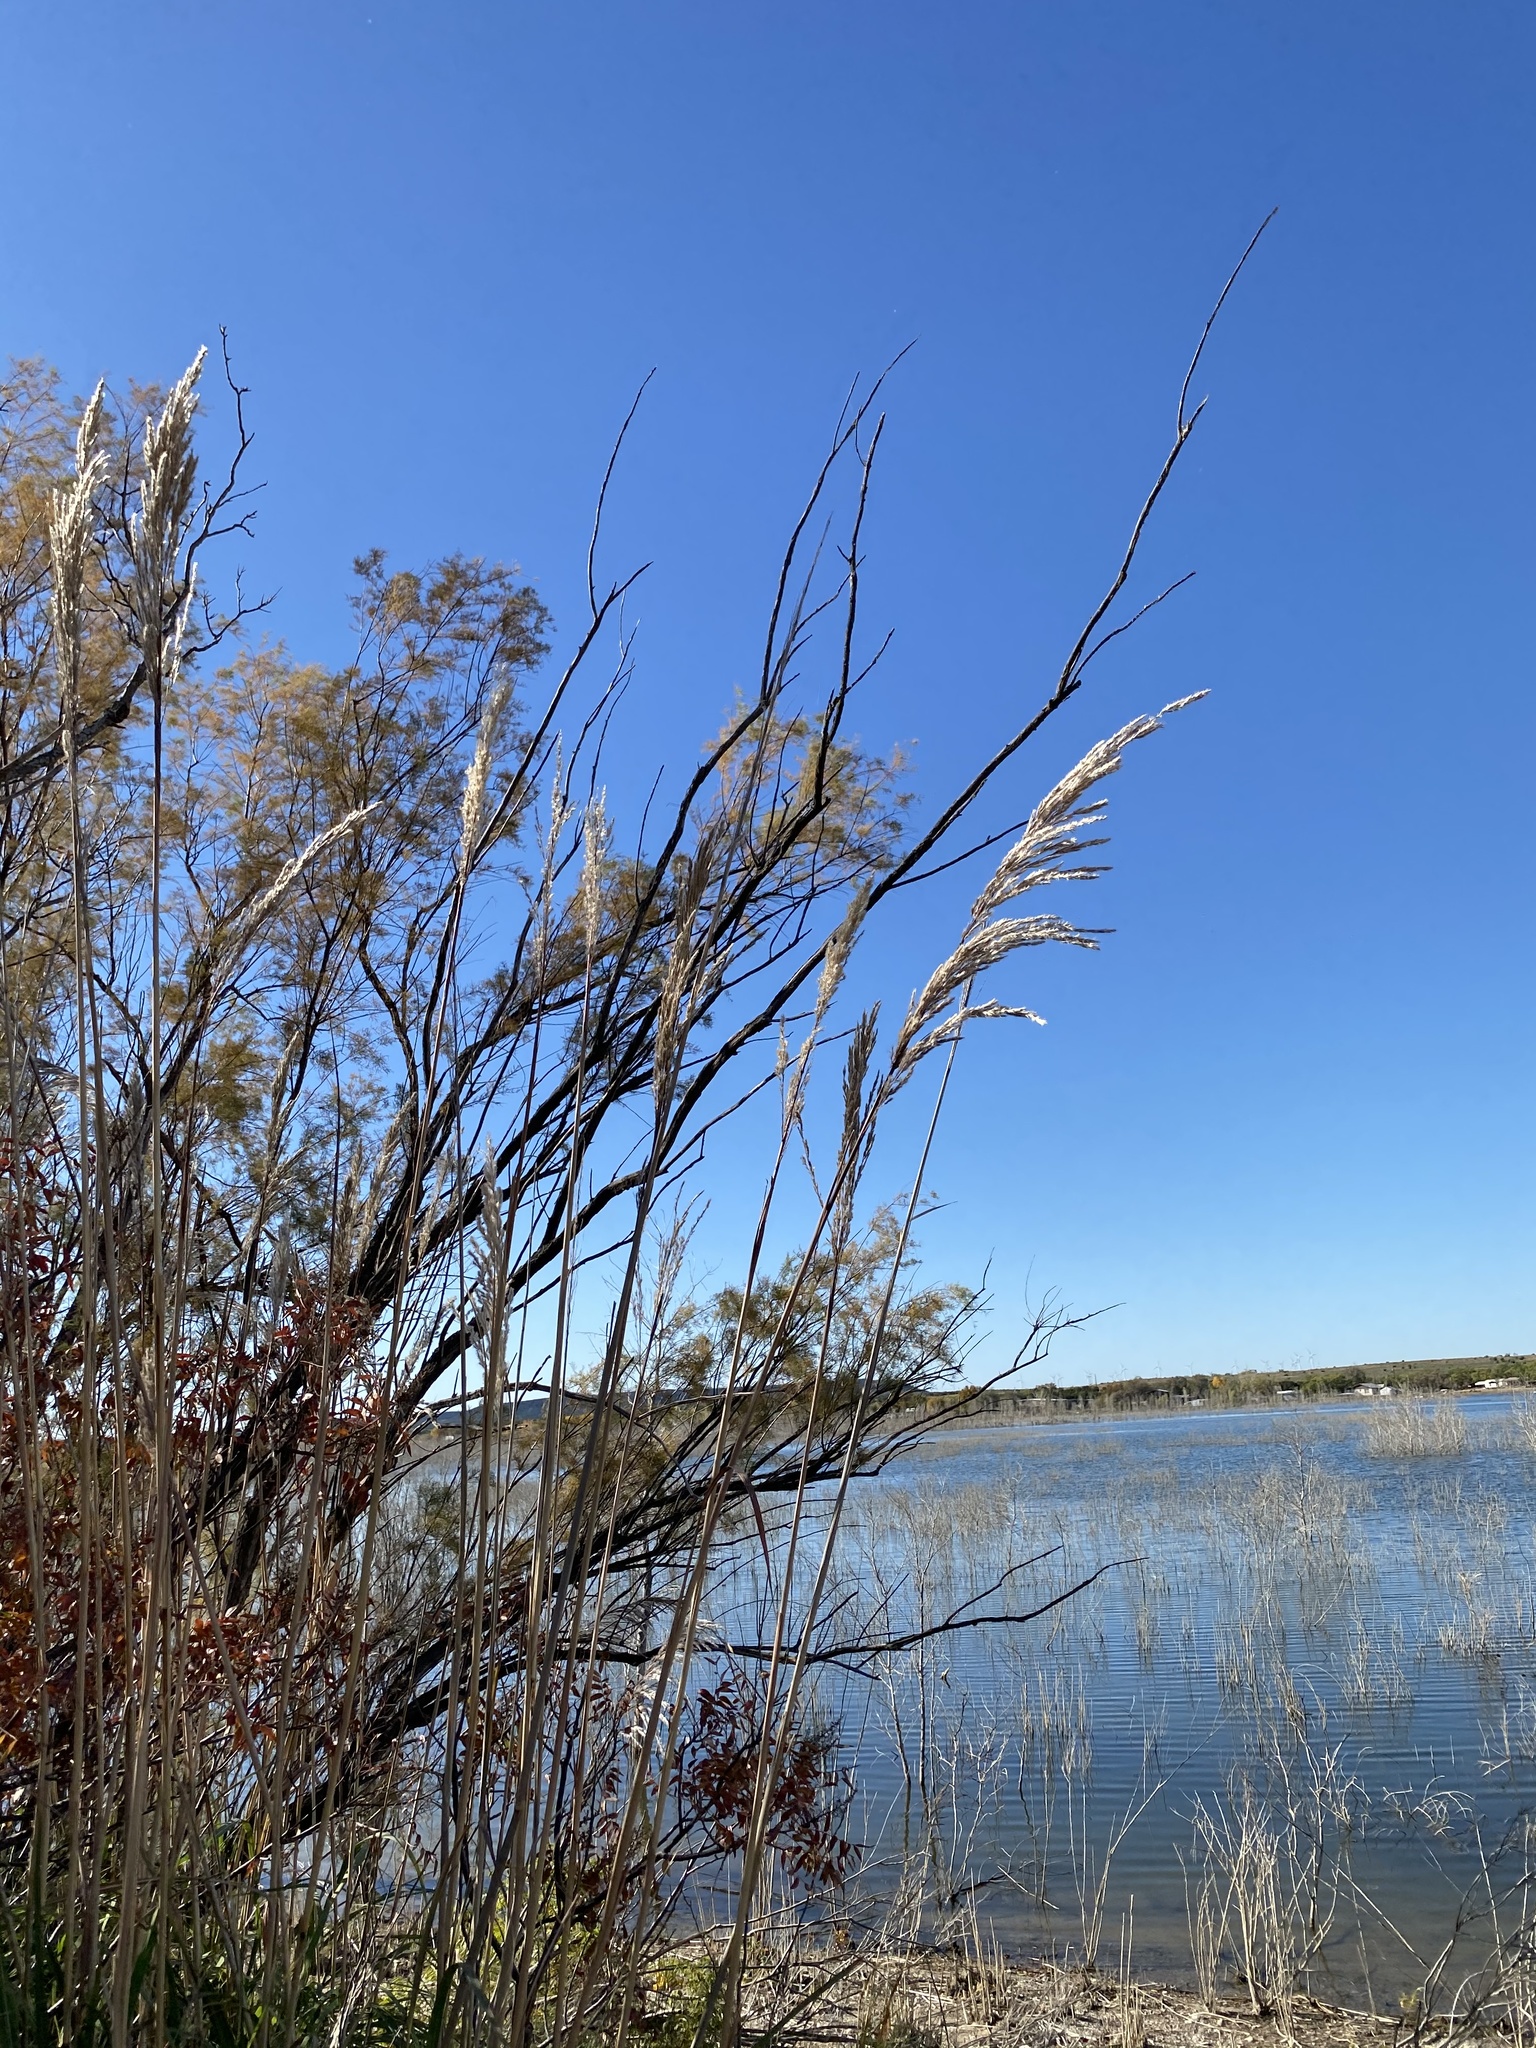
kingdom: Plantae
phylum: Tracheophyta
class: Liliopsida
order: Poales
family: Poaceae
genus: Phragmites
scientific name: Phragmites australis
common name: Common reed
